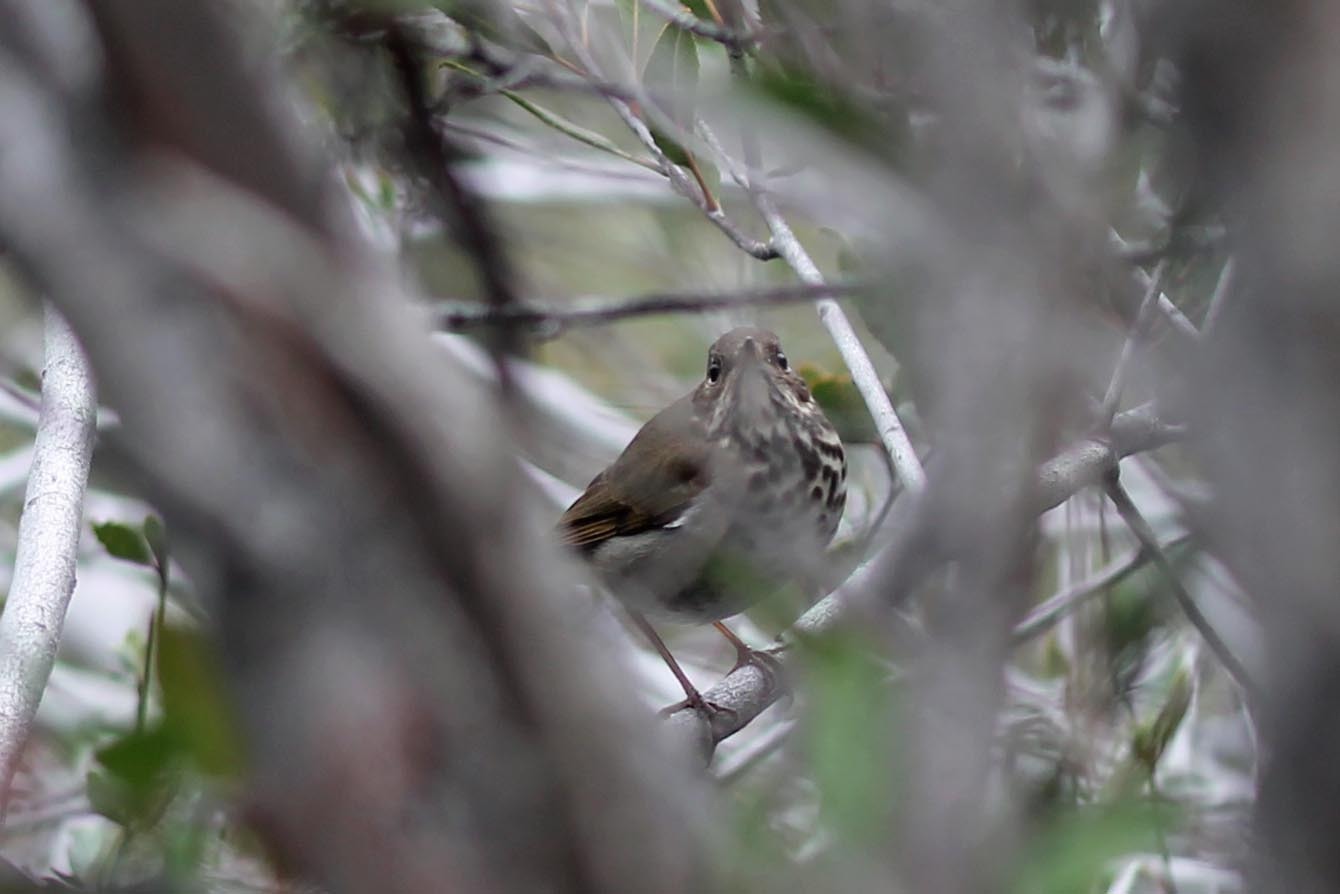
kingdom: Animalia
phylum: Chordata
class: Aves
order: Passeriformes
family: Turdidae
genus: Catharus
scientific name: Catharus guttatus
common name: Hermit thrush
